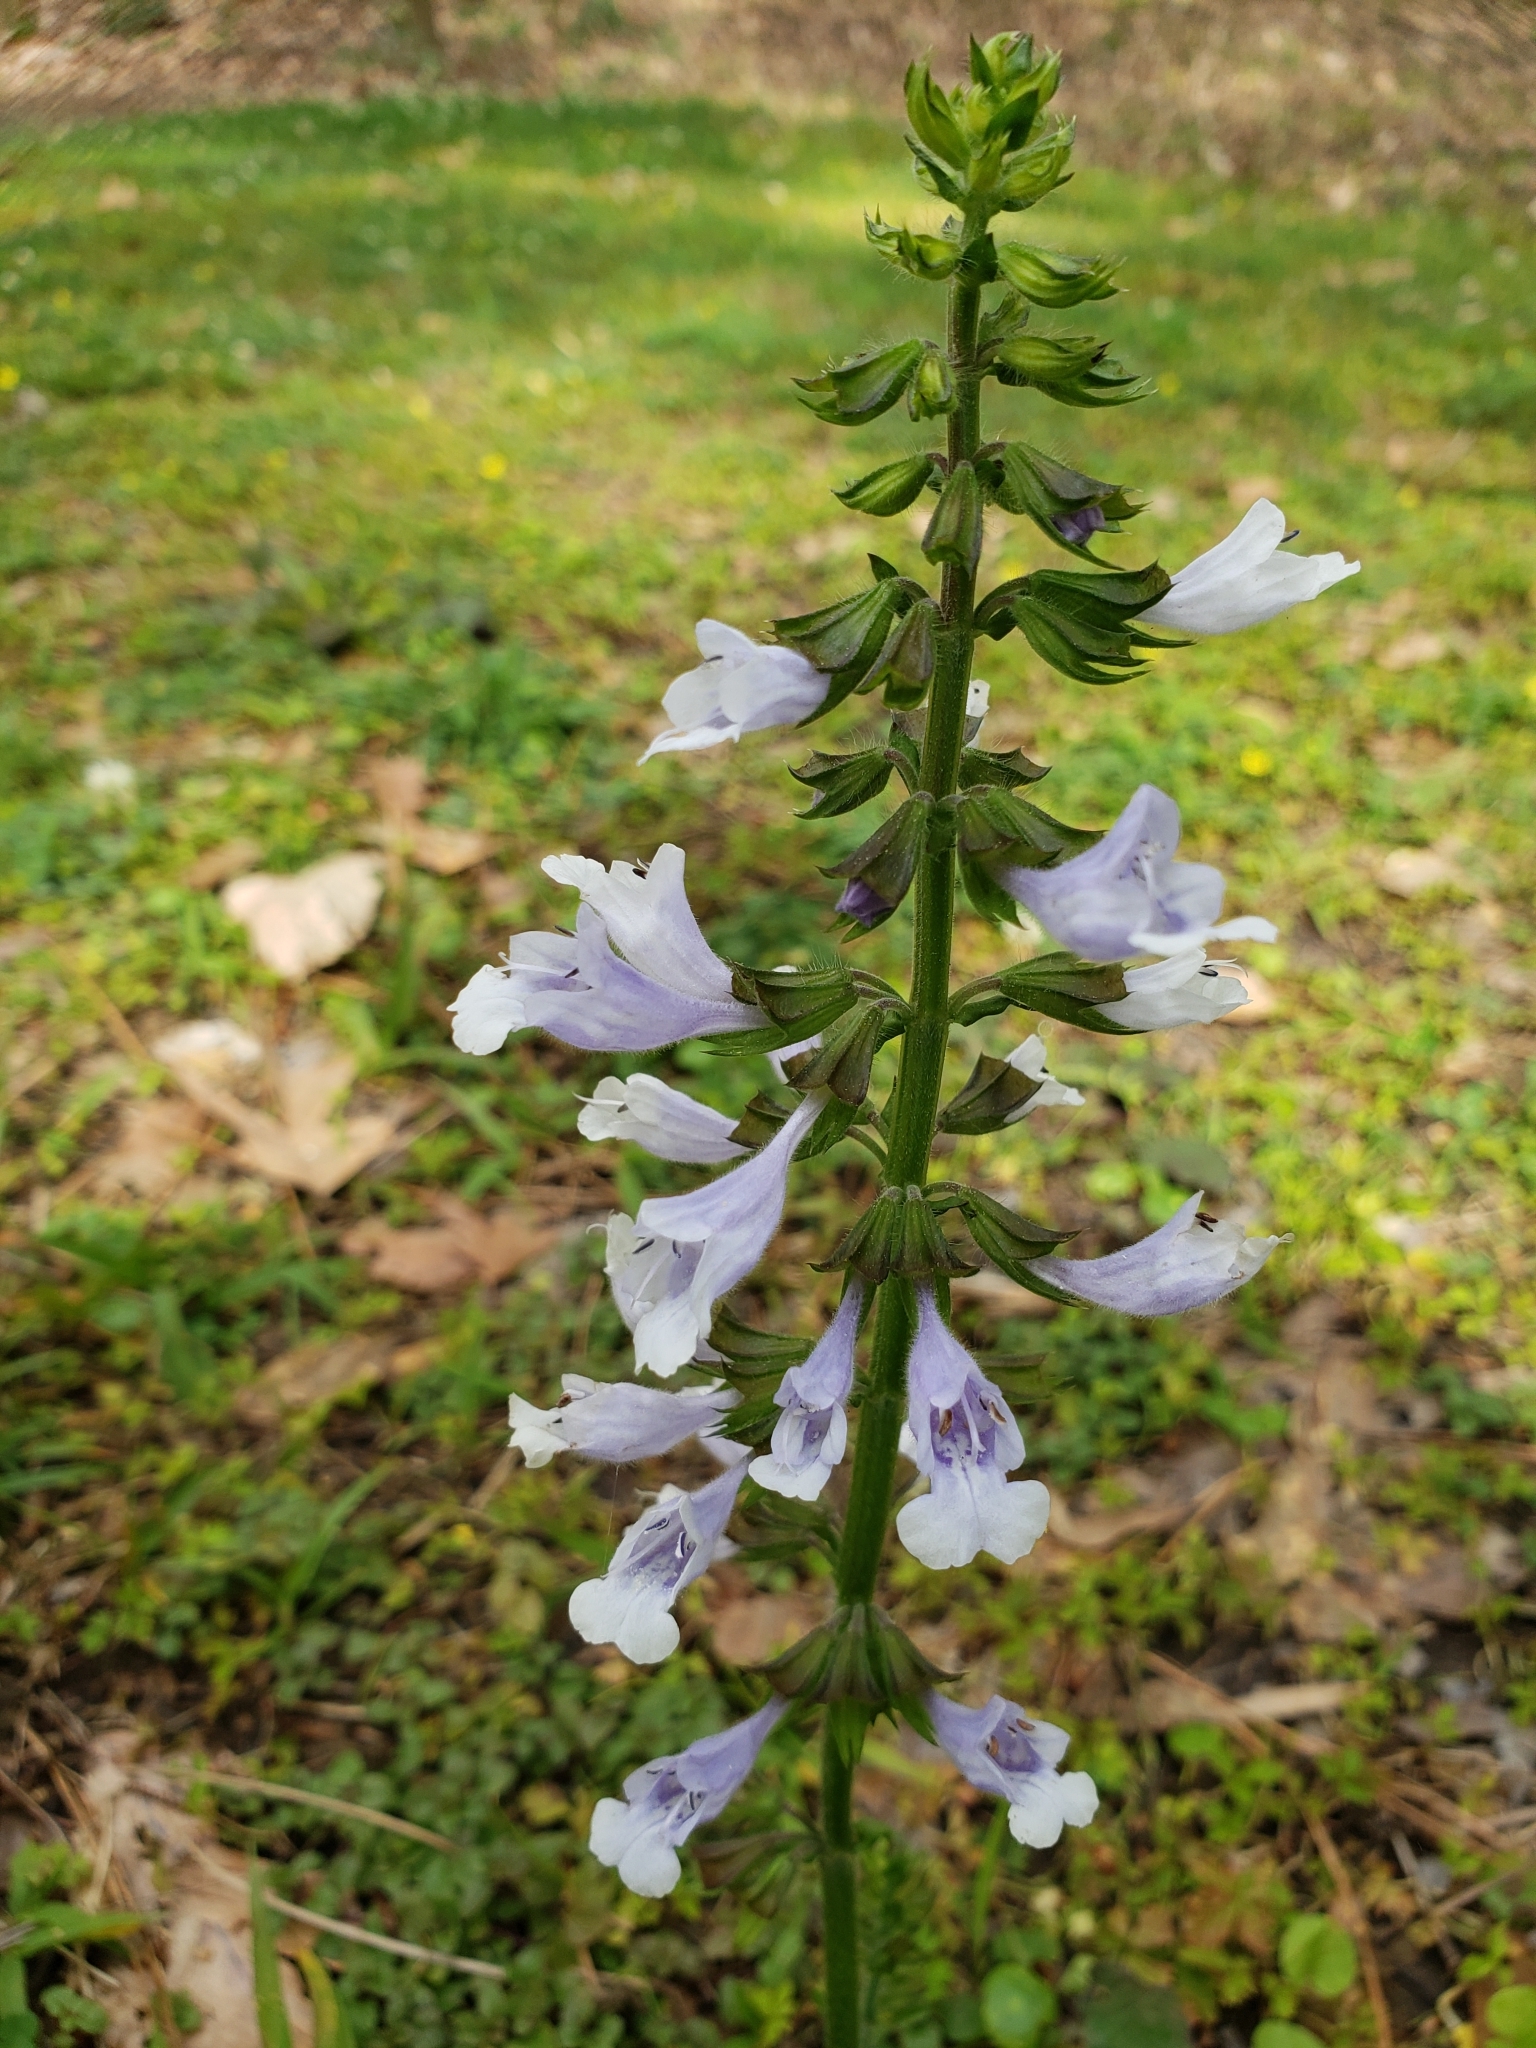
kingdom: Plantae
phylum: Tracheophyta
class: Magnoliopsida
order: Lamiales
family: Lamiaceae
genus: Salvia
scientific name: Salvia lyrata
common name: Cancerweed
